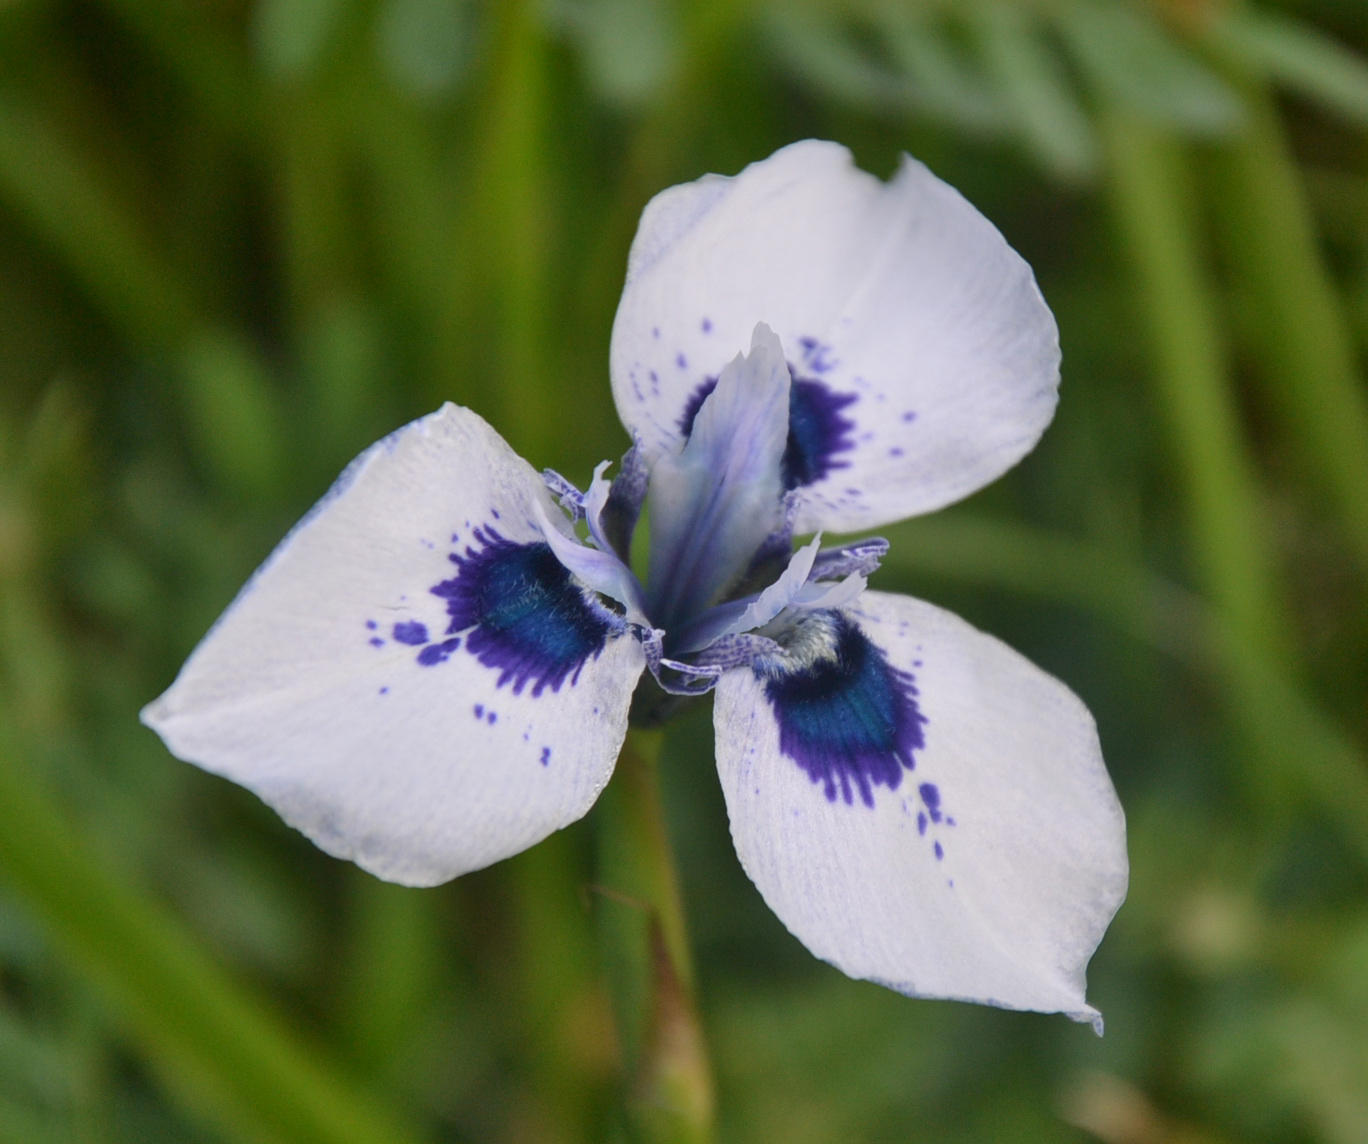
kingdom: Plantae
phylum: Tracheophyta
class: Liliopsida
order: Asparagales
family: Iridaceae
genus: Moraea
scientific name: Moraea aristata
